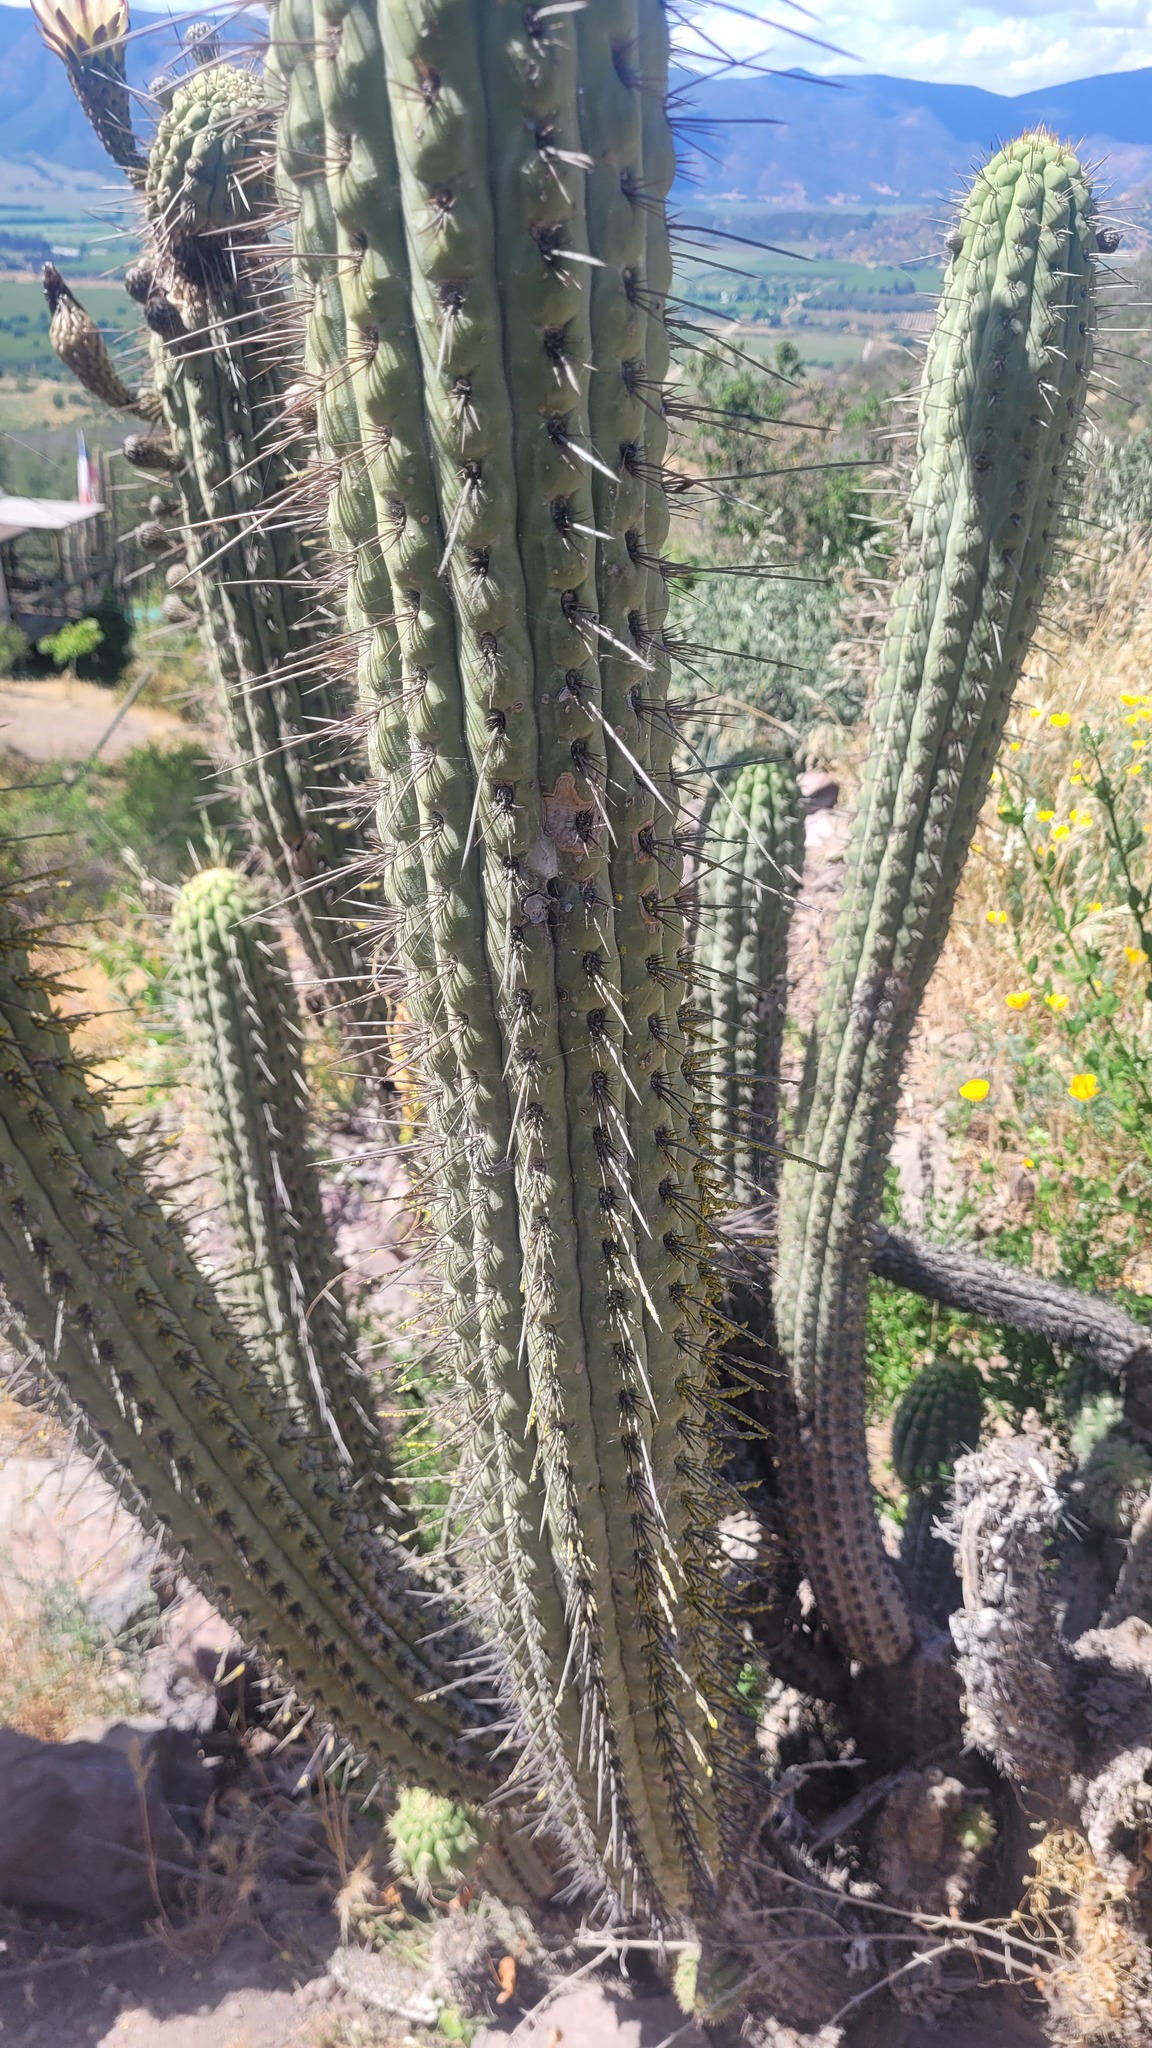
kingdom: Plantae
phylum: Tracheophyta
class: Magnoliopsida
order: Caryophyllales
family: Cactaceae
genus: Leucostele
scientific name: Leucostele chiloensis
